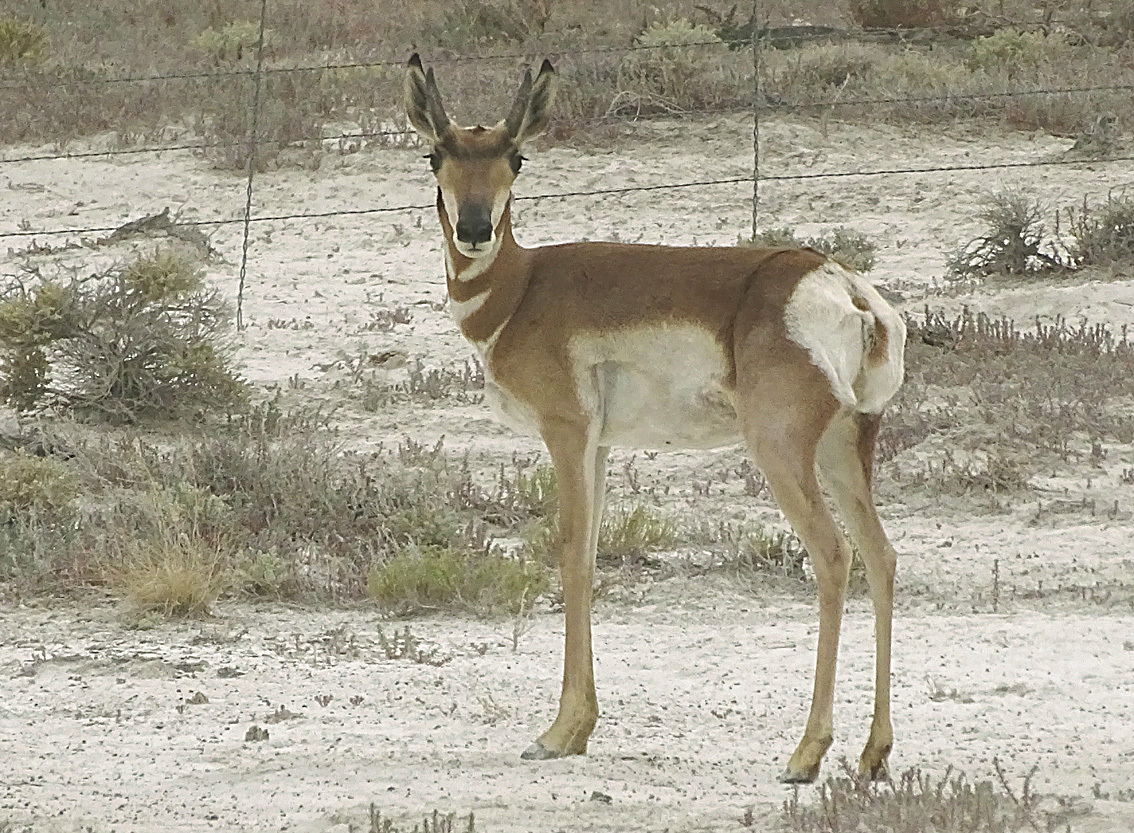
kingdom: Animalia
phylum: Chordata
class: Mammalia
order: Artiodactyla
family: Antilocapridae
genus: Antilocapra
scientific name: Antilocapra americana
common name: Pronghorn
